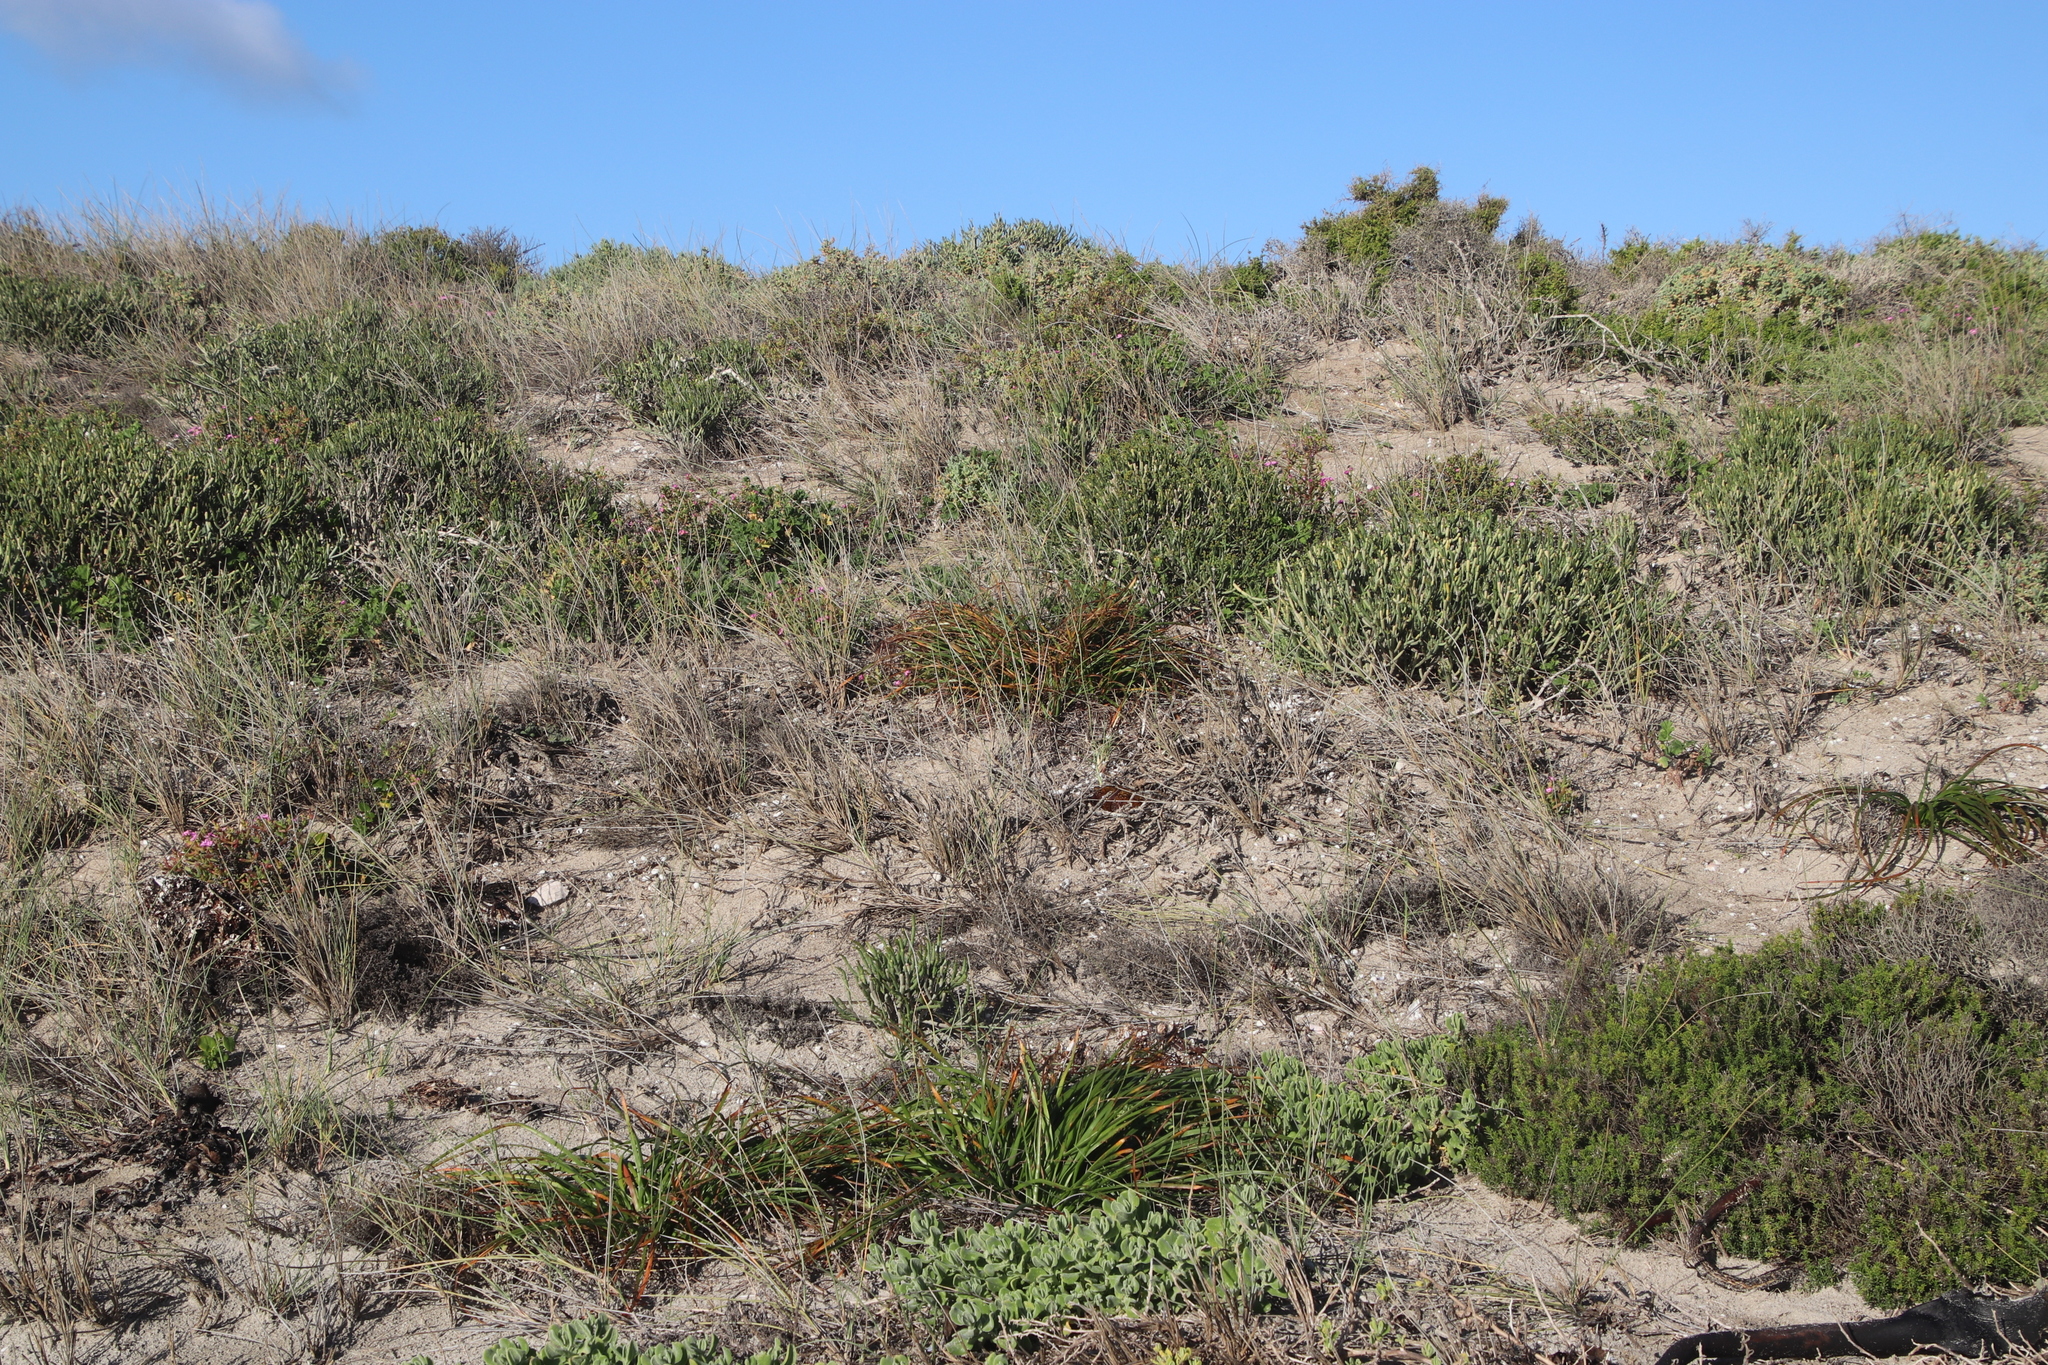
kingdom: Plantae
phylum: Tracheophyta
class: Liliopsida
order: Asparagales
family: Asphodelaceae
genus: Trachyandra
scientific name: Trachyandra divaricata
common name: Dune onionweed
